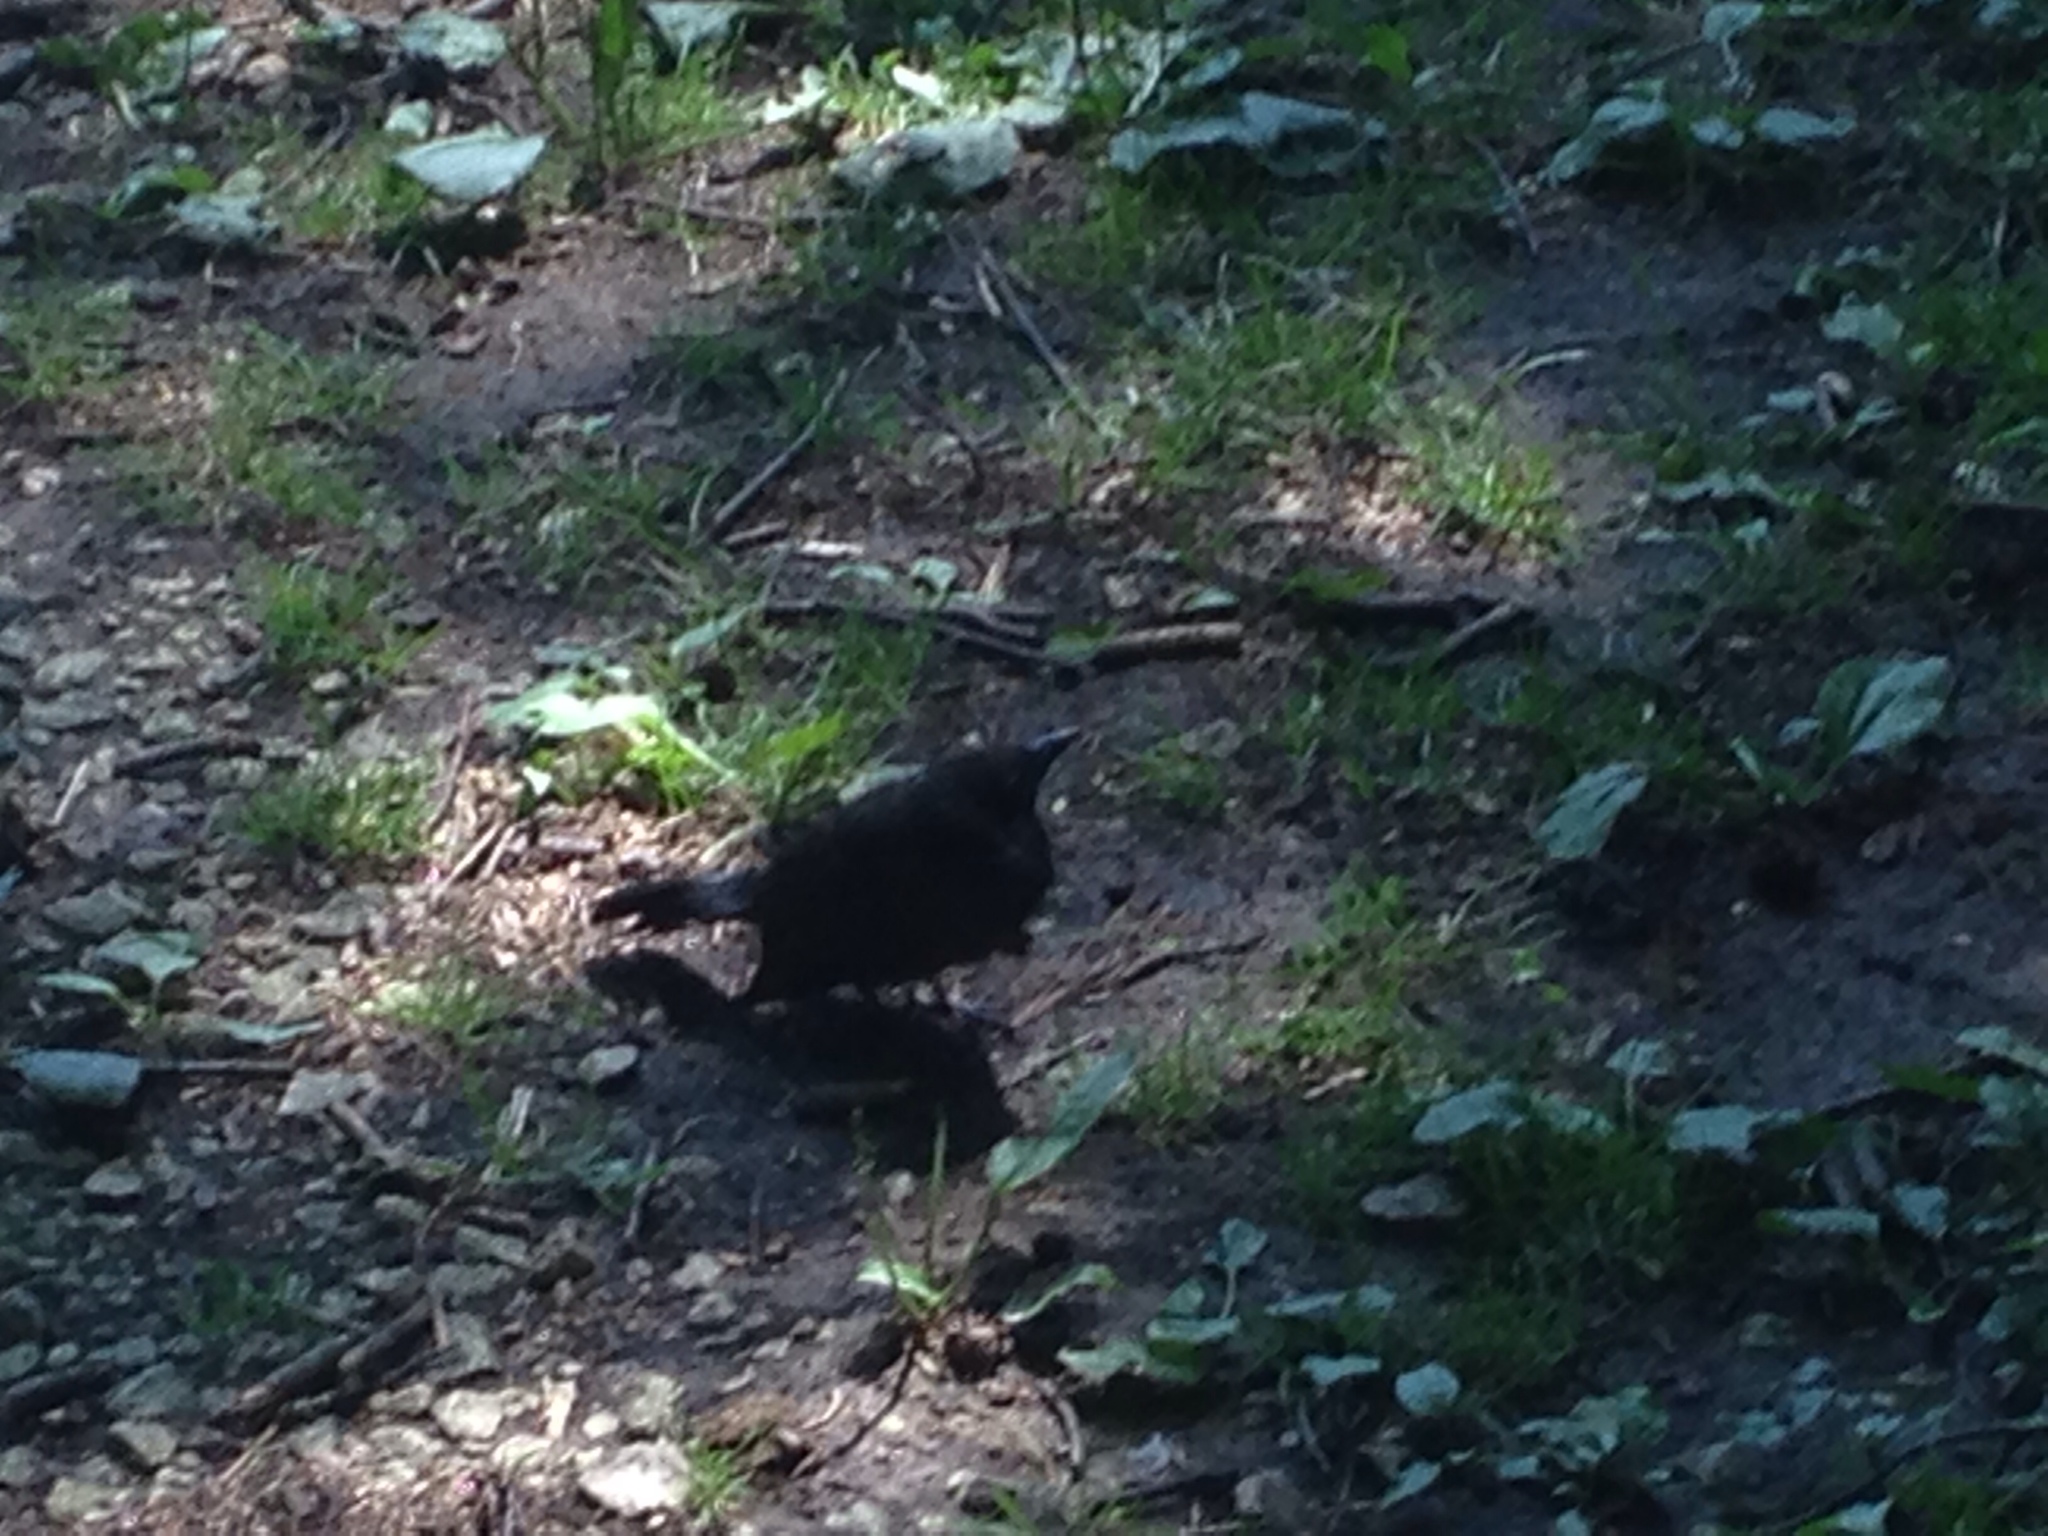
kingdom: Animalia
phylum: Chordata
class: Aves
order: Passeriformes
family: Icteridae
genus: Quiscalus
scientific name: Quiscalus quiscula
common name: Common grackle
